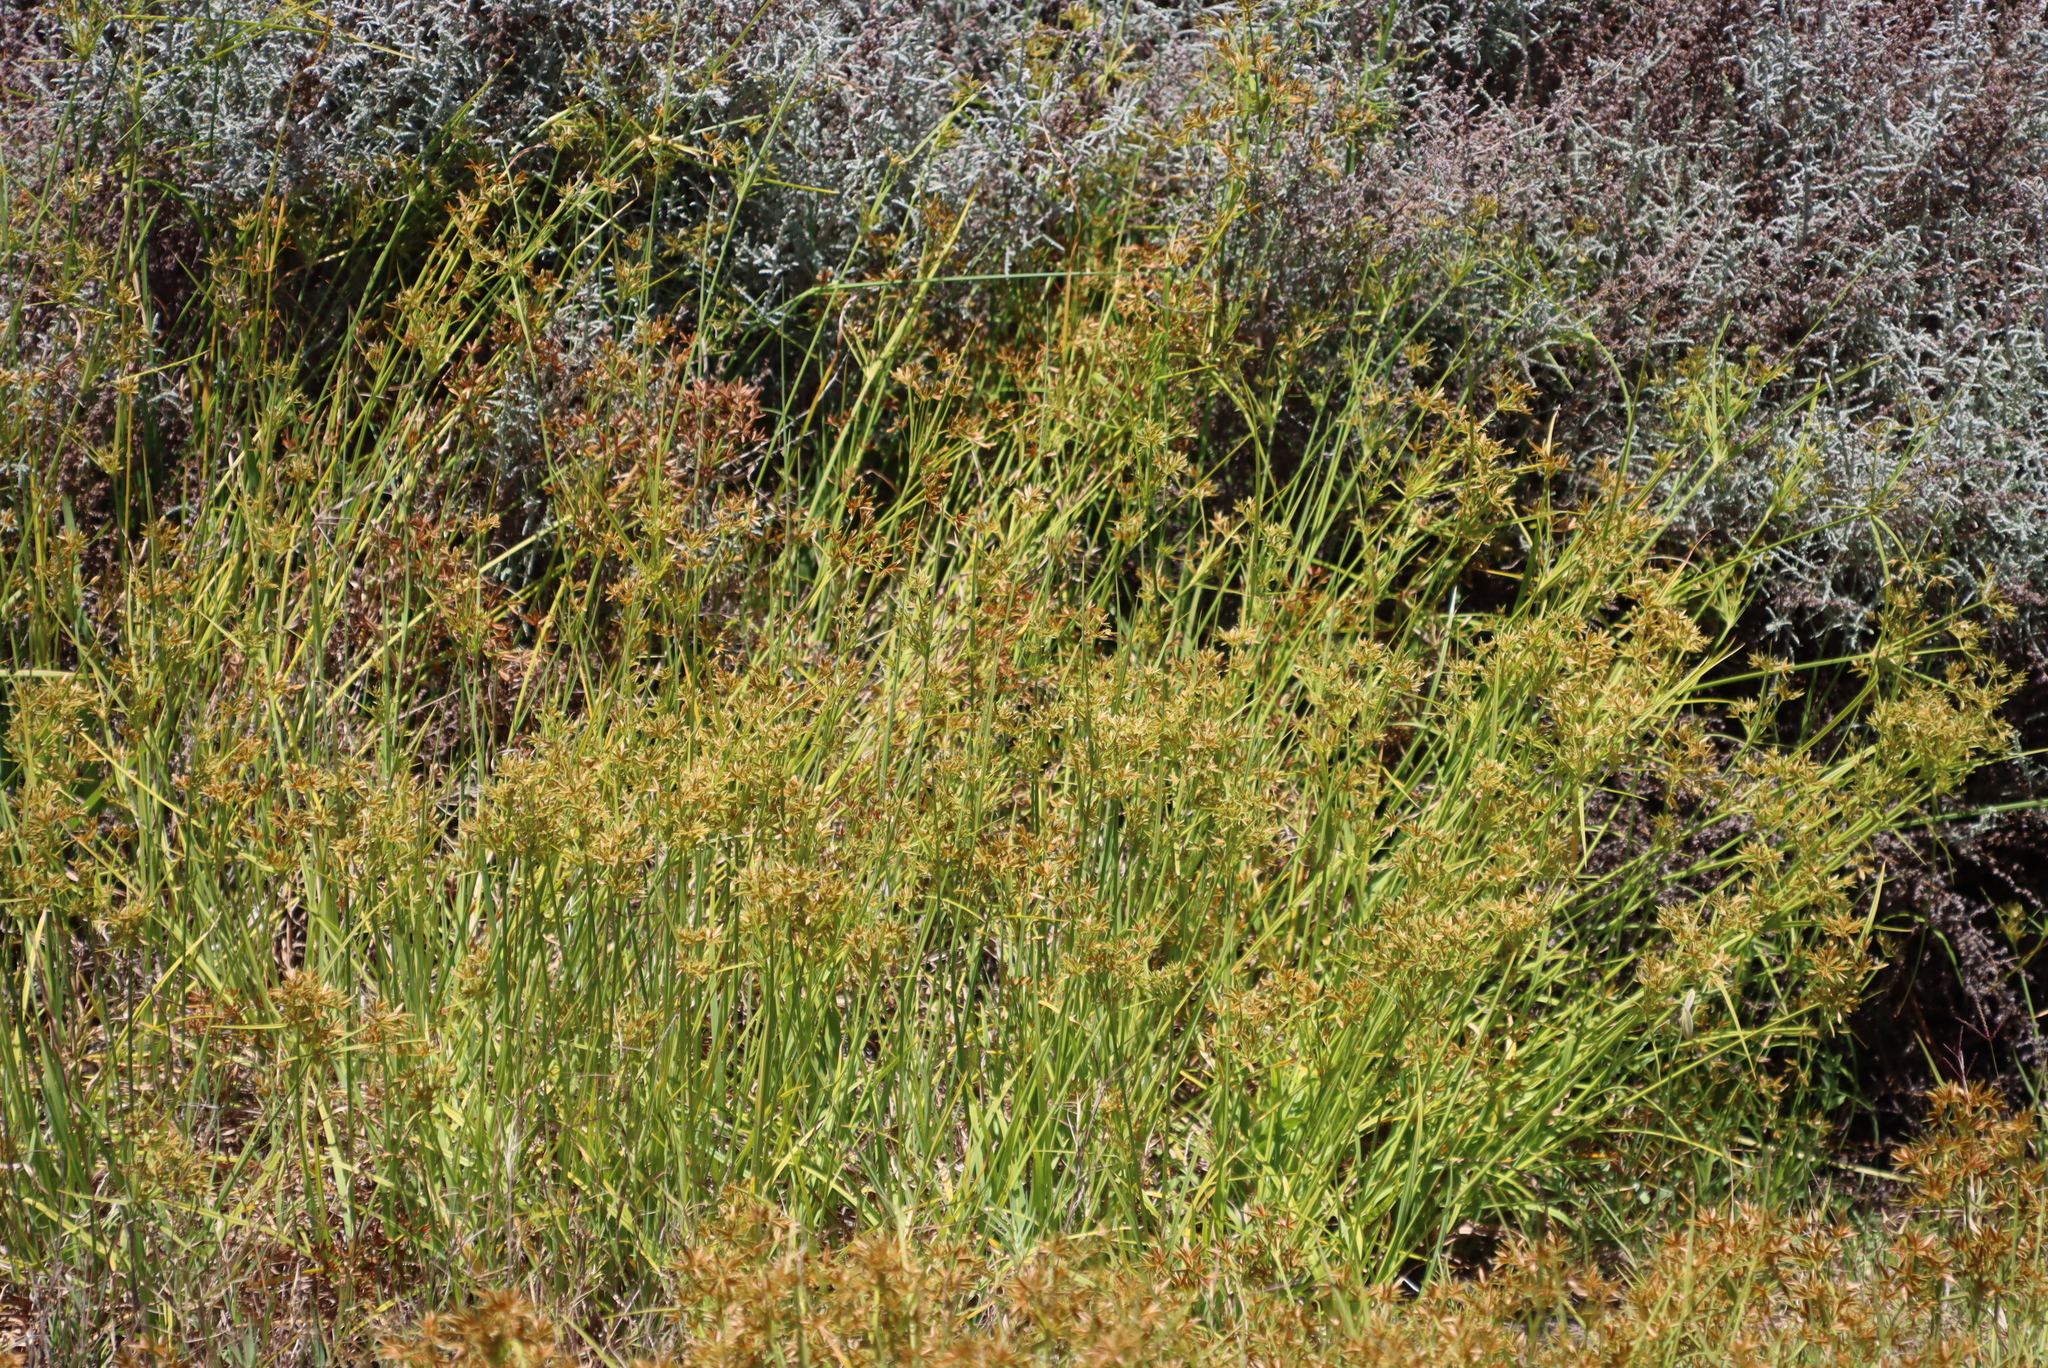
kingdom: Plantae
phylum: Tracheophyta
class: Liliopsida
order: Poales
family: Juncaceae
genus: Juncus
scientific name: Juncus capensis
